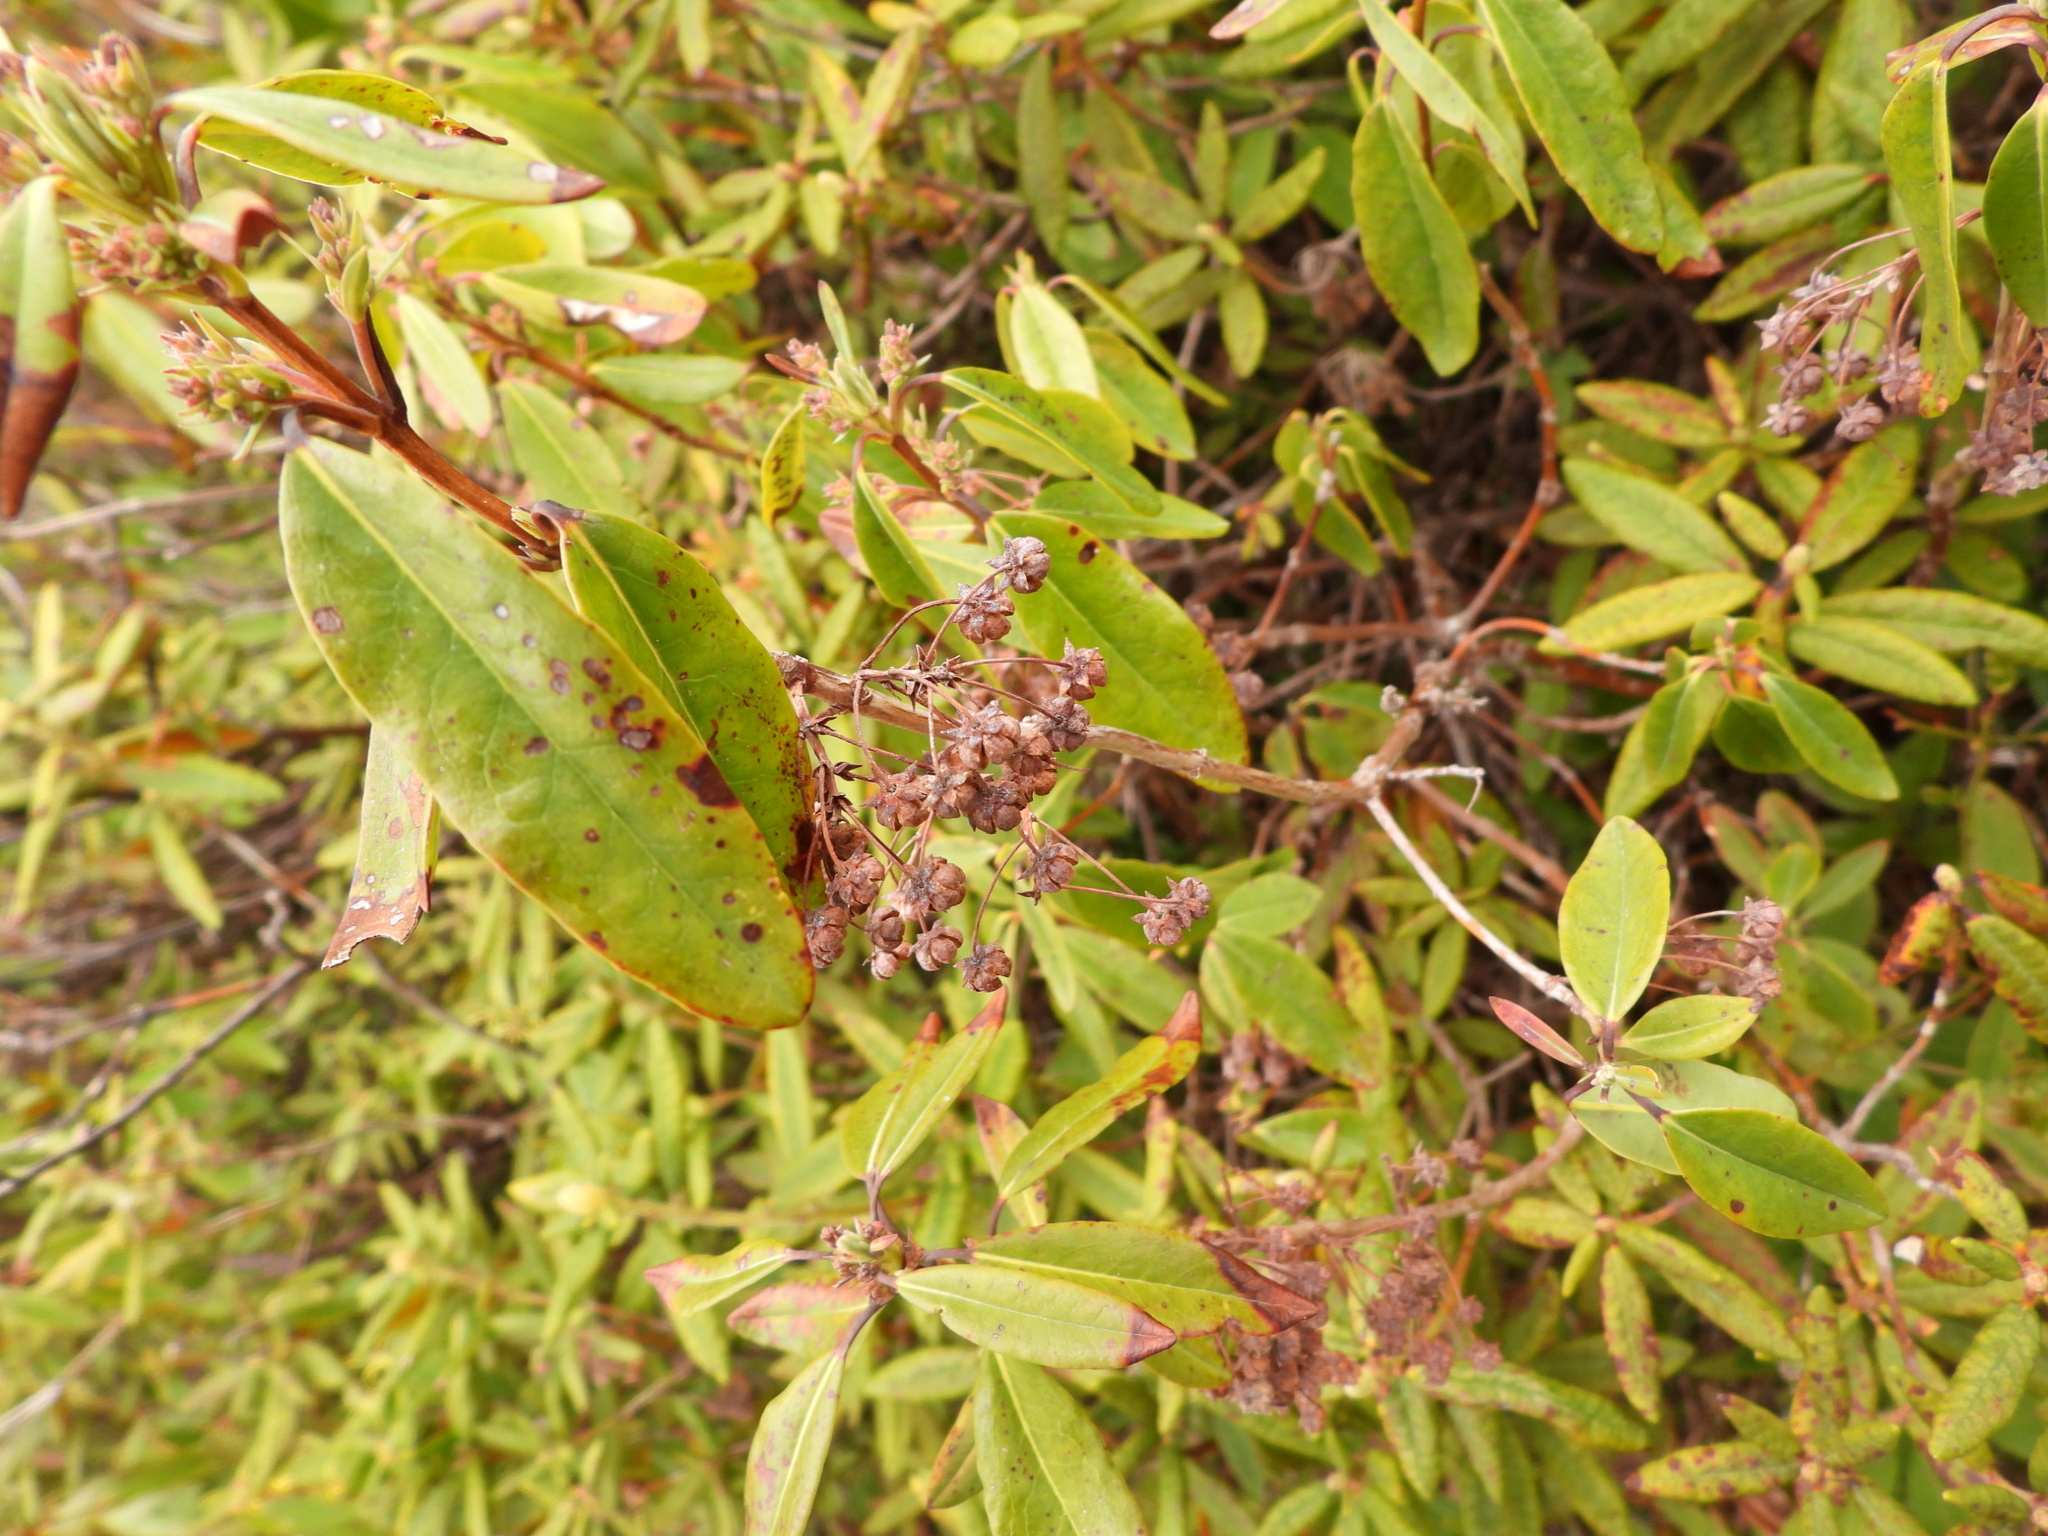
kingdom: Plantae
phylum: Tracheophyta
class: Magnoliopsida
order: Ericales
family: Ericaceae
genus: Kalmia
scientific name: Kalmia angustifolia
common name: Sheep-laurel
